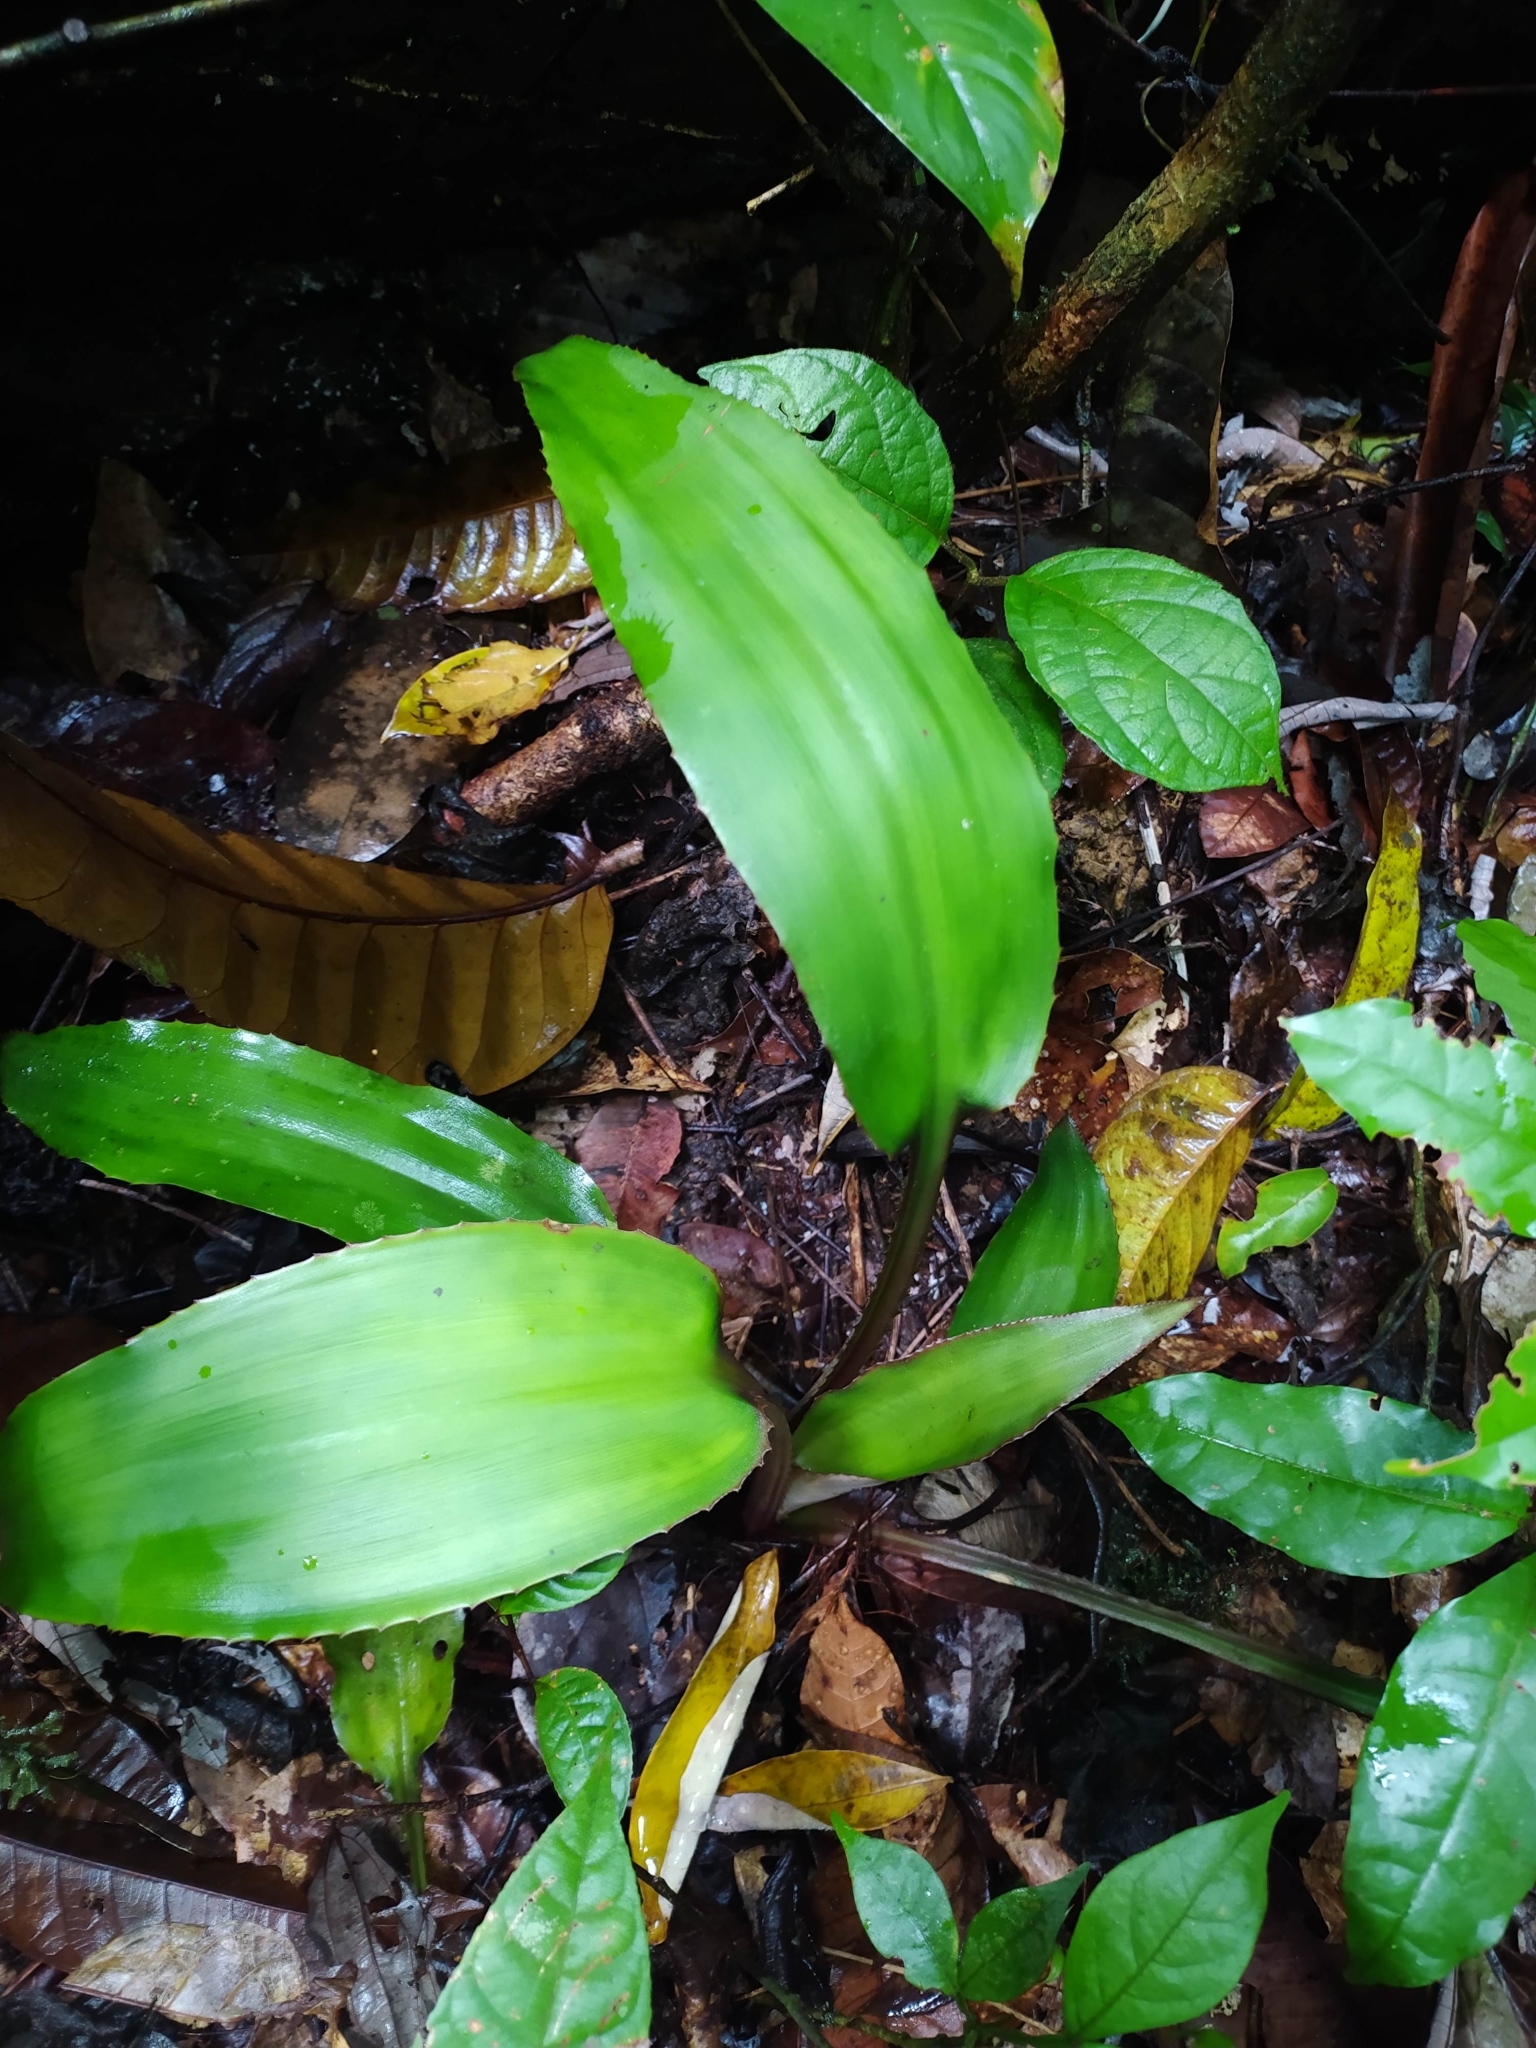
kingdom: Plantae
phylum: Tracheophyta
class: Liliopsida
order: Poales
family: Bromeliaceae
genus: Disteganthus
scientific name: Disteganthus basilateralis
